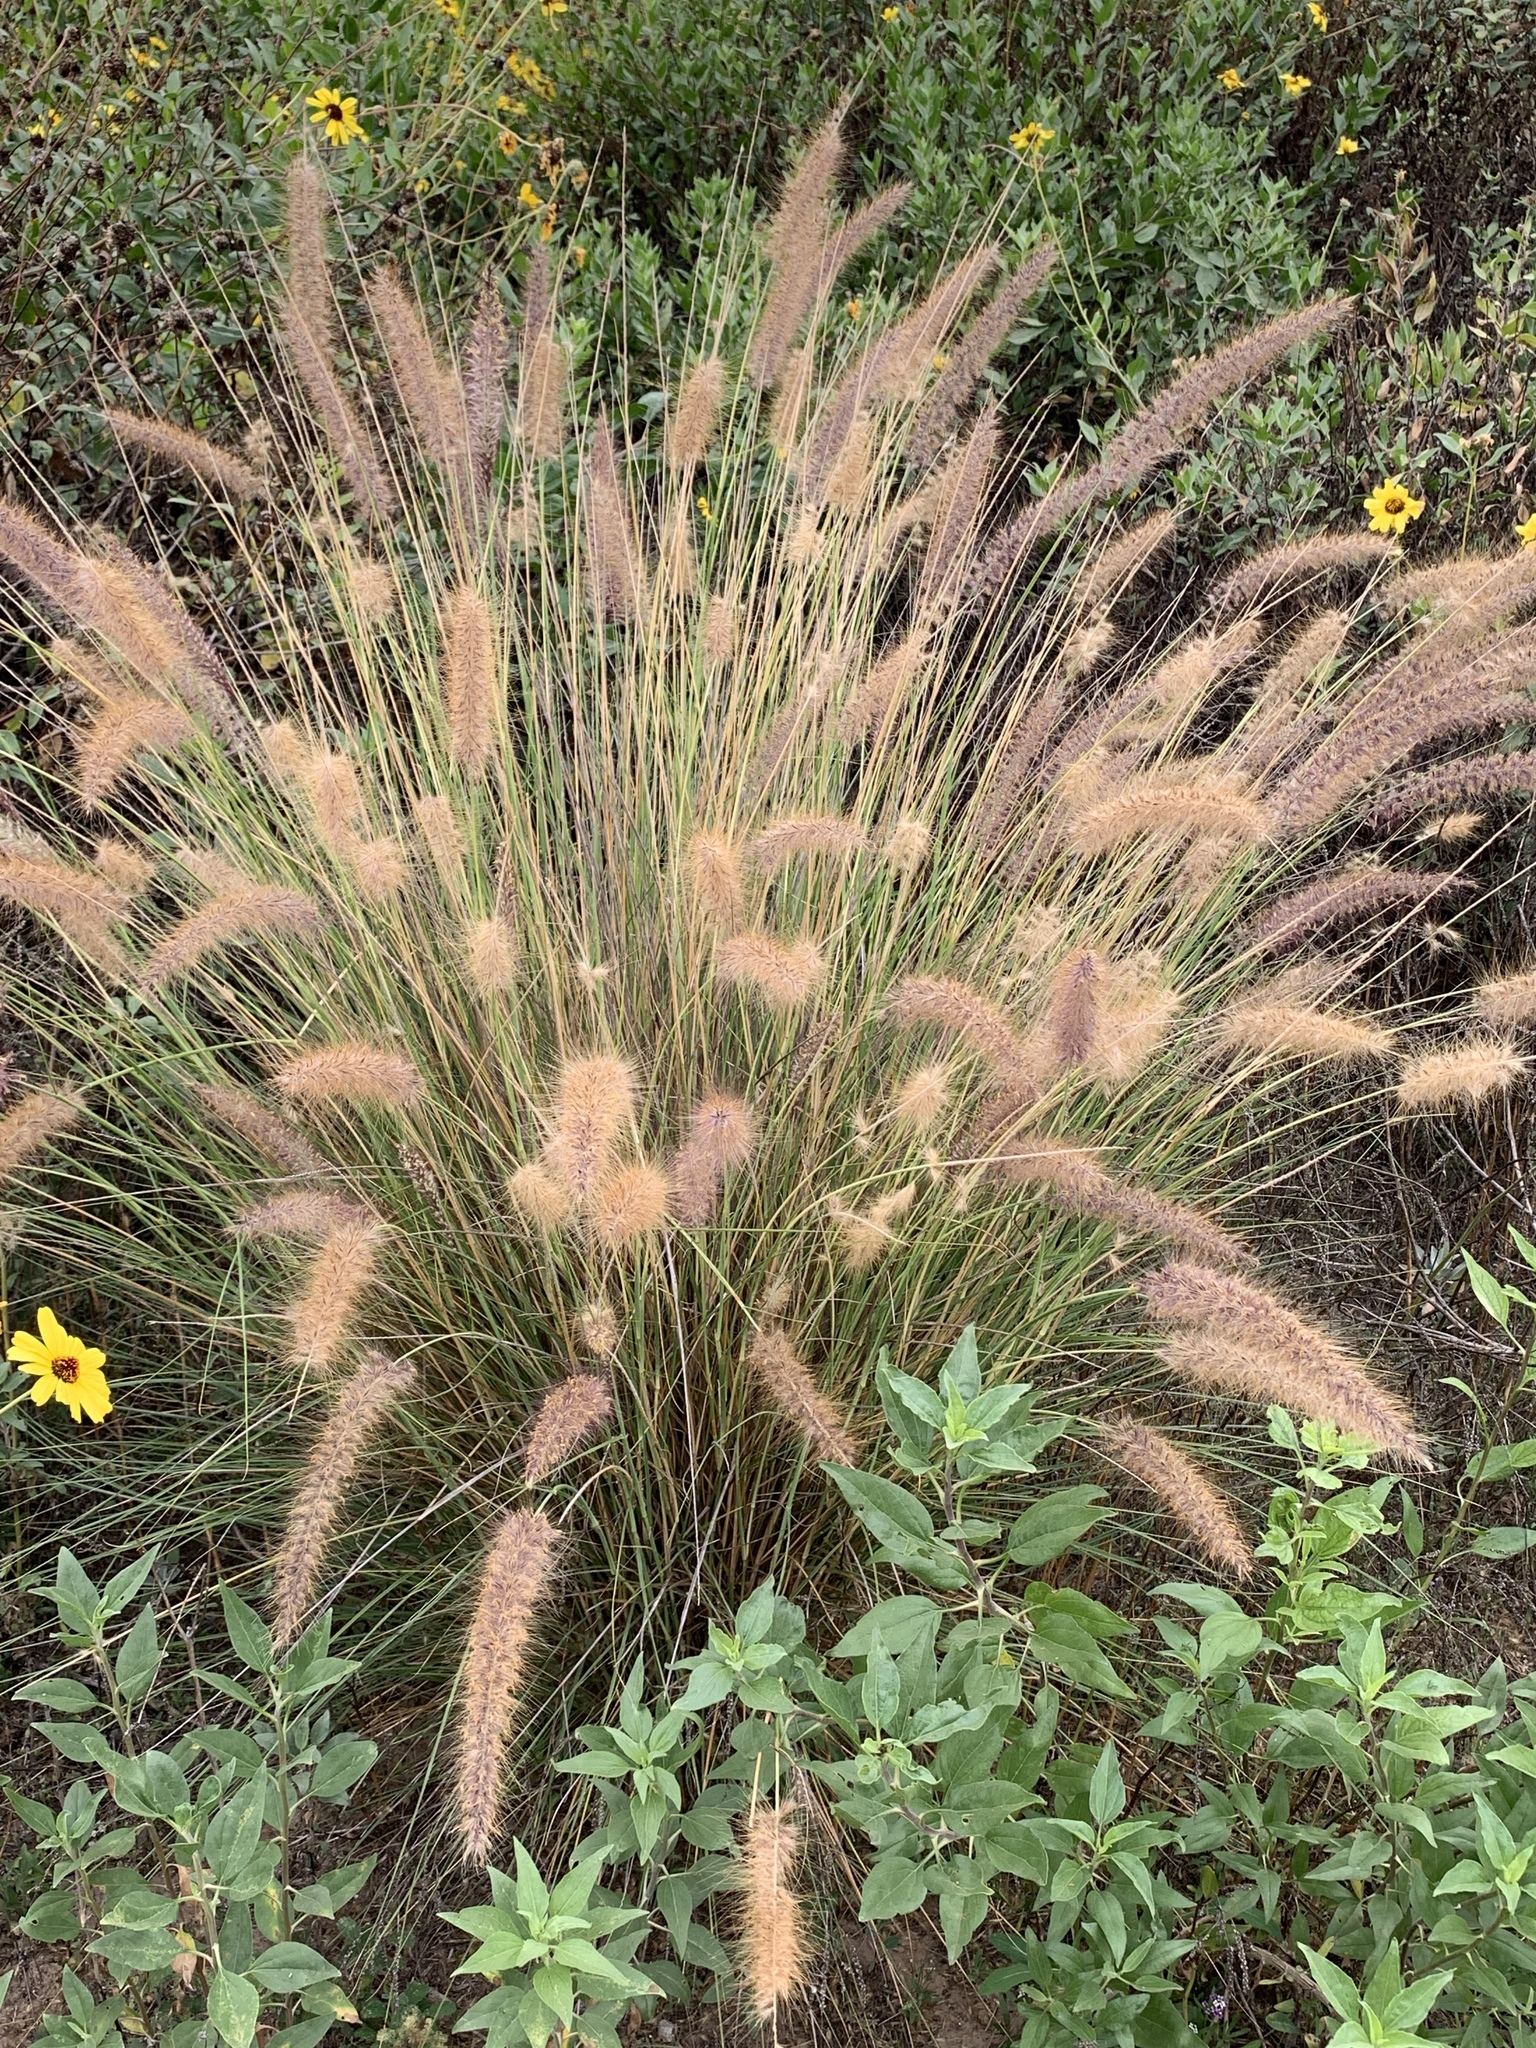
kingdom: Plantae
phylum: Tracheophyta
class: Liliopsida
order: Poales
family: Poaceae
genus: Cenchrus
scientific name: Cenchrus setaceus
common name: Crimson fountaingrass
